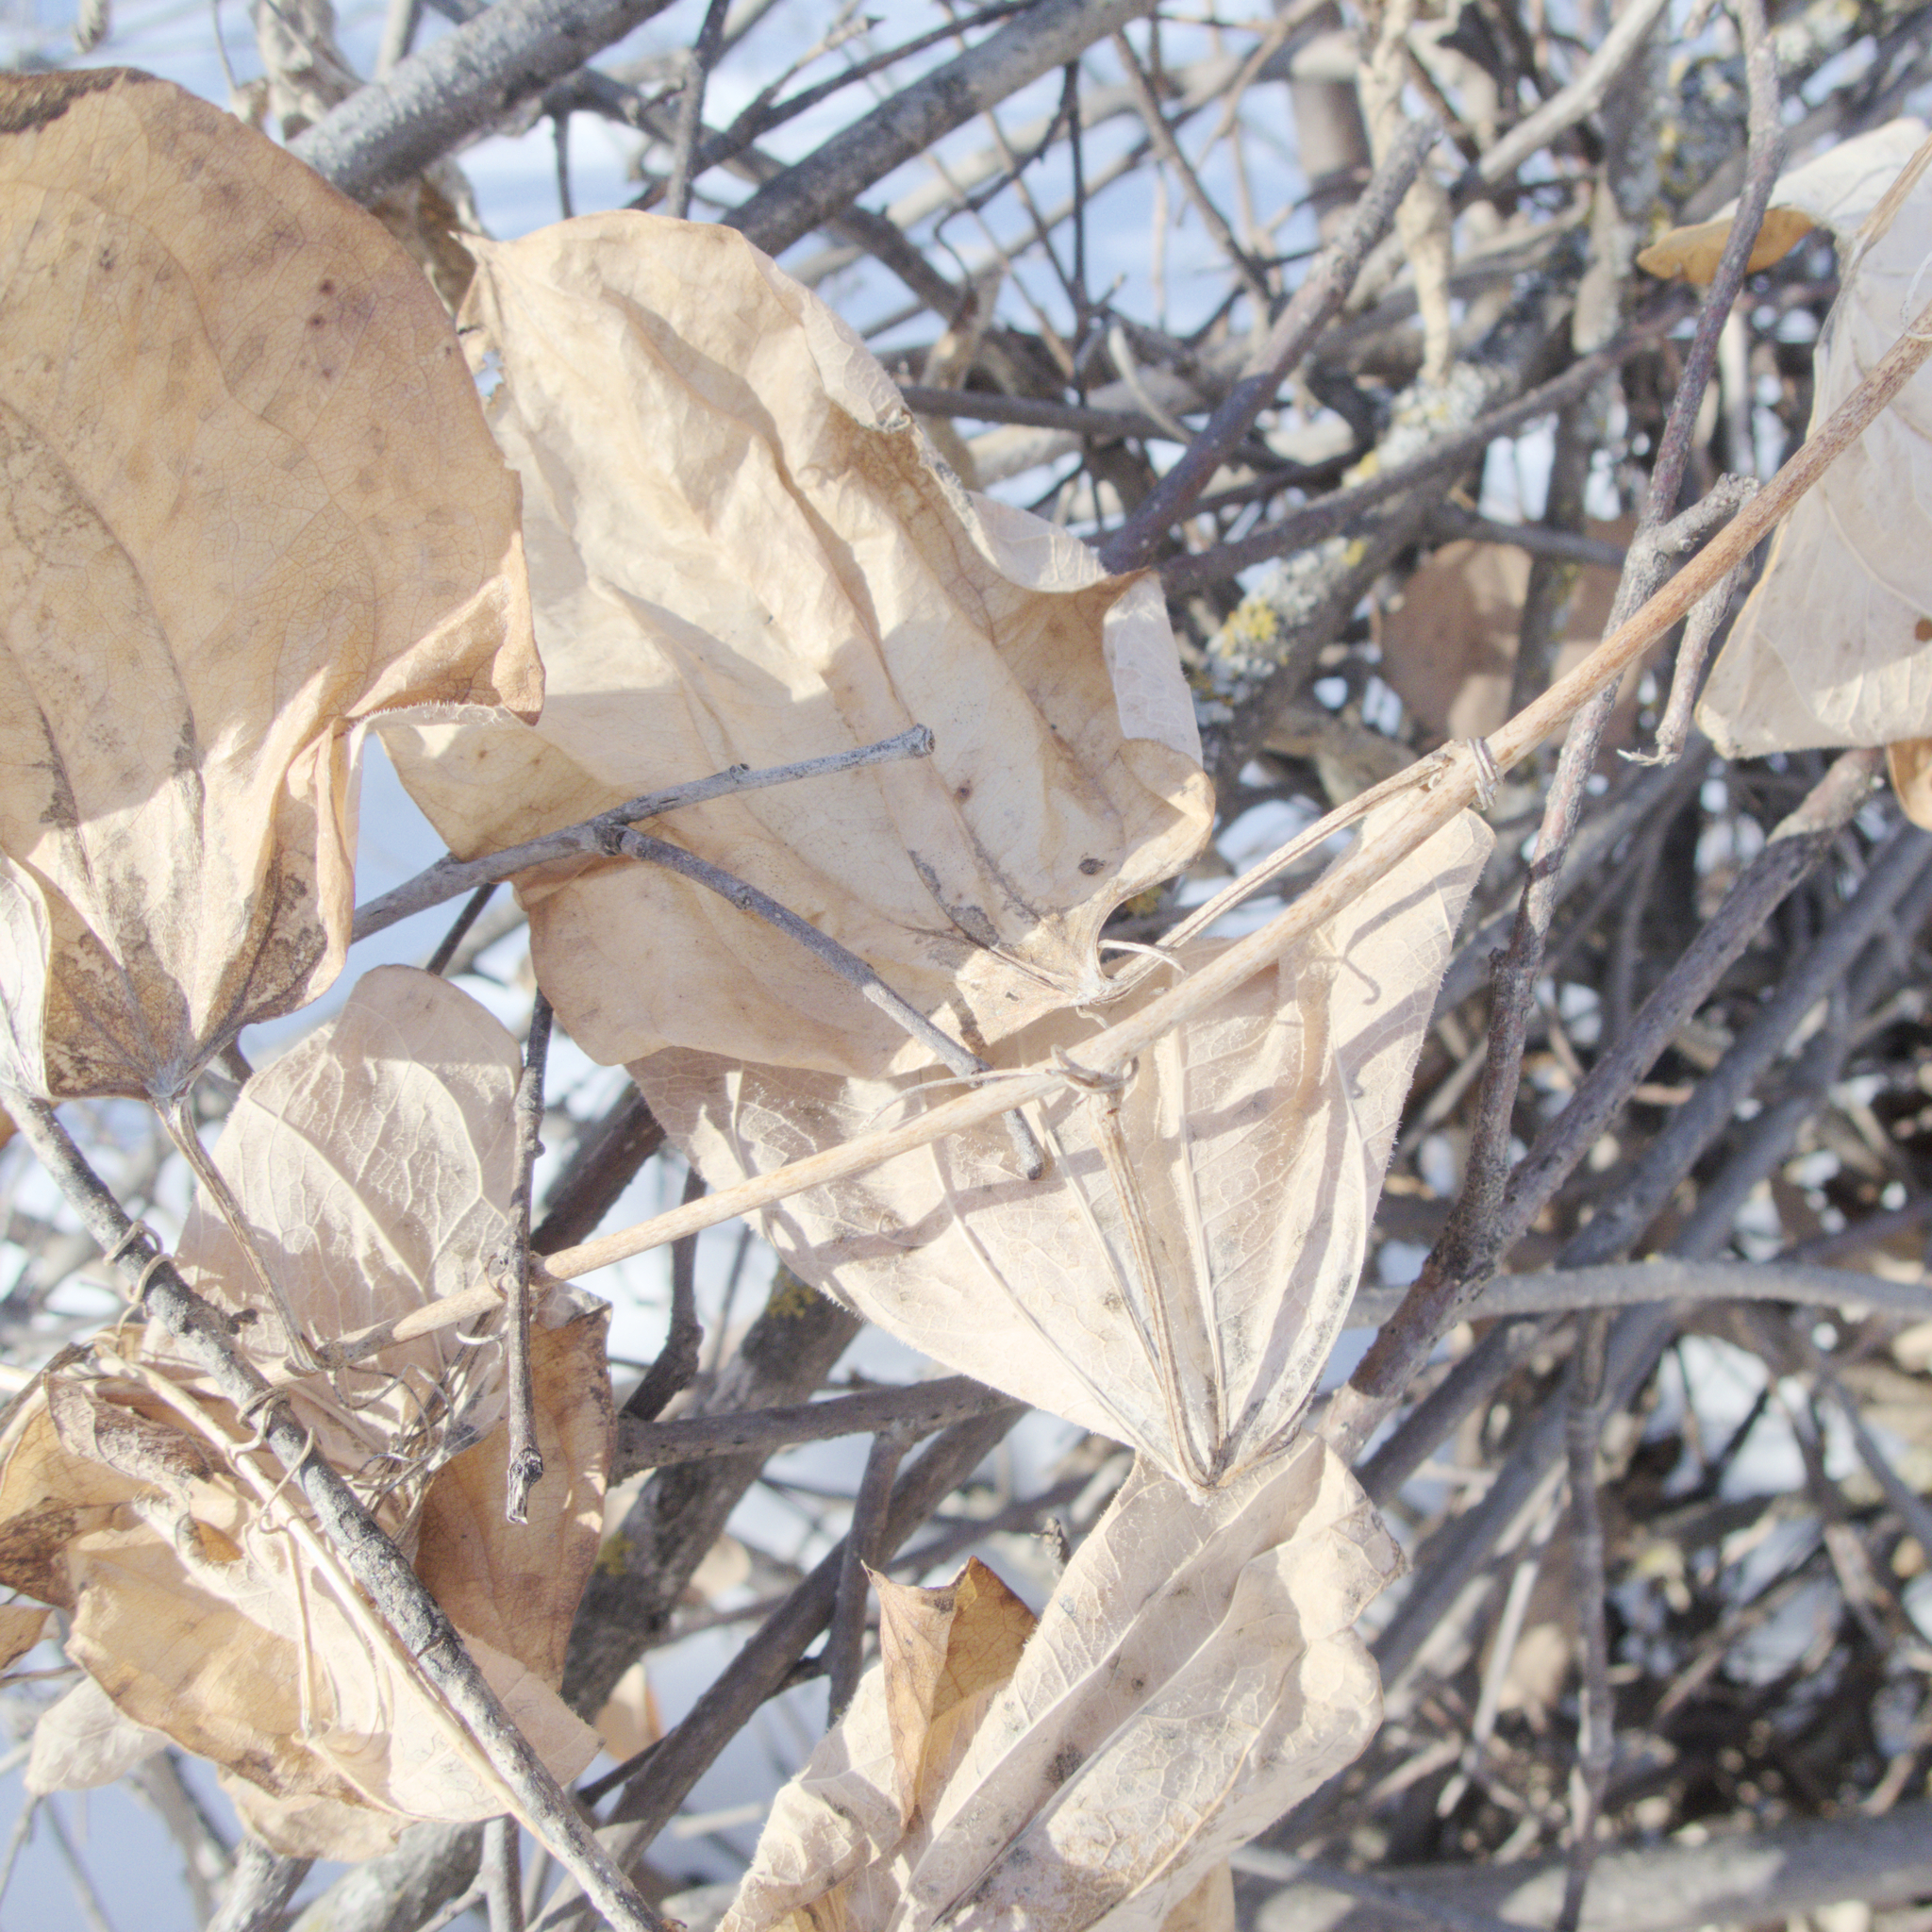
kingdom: Plantae
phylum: Tracheophyta
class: Liliopsida
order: Liliales
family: Smilacaceae
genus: Smilax
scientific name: Smilax lasioneura
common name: Blue ridge carrionflower
